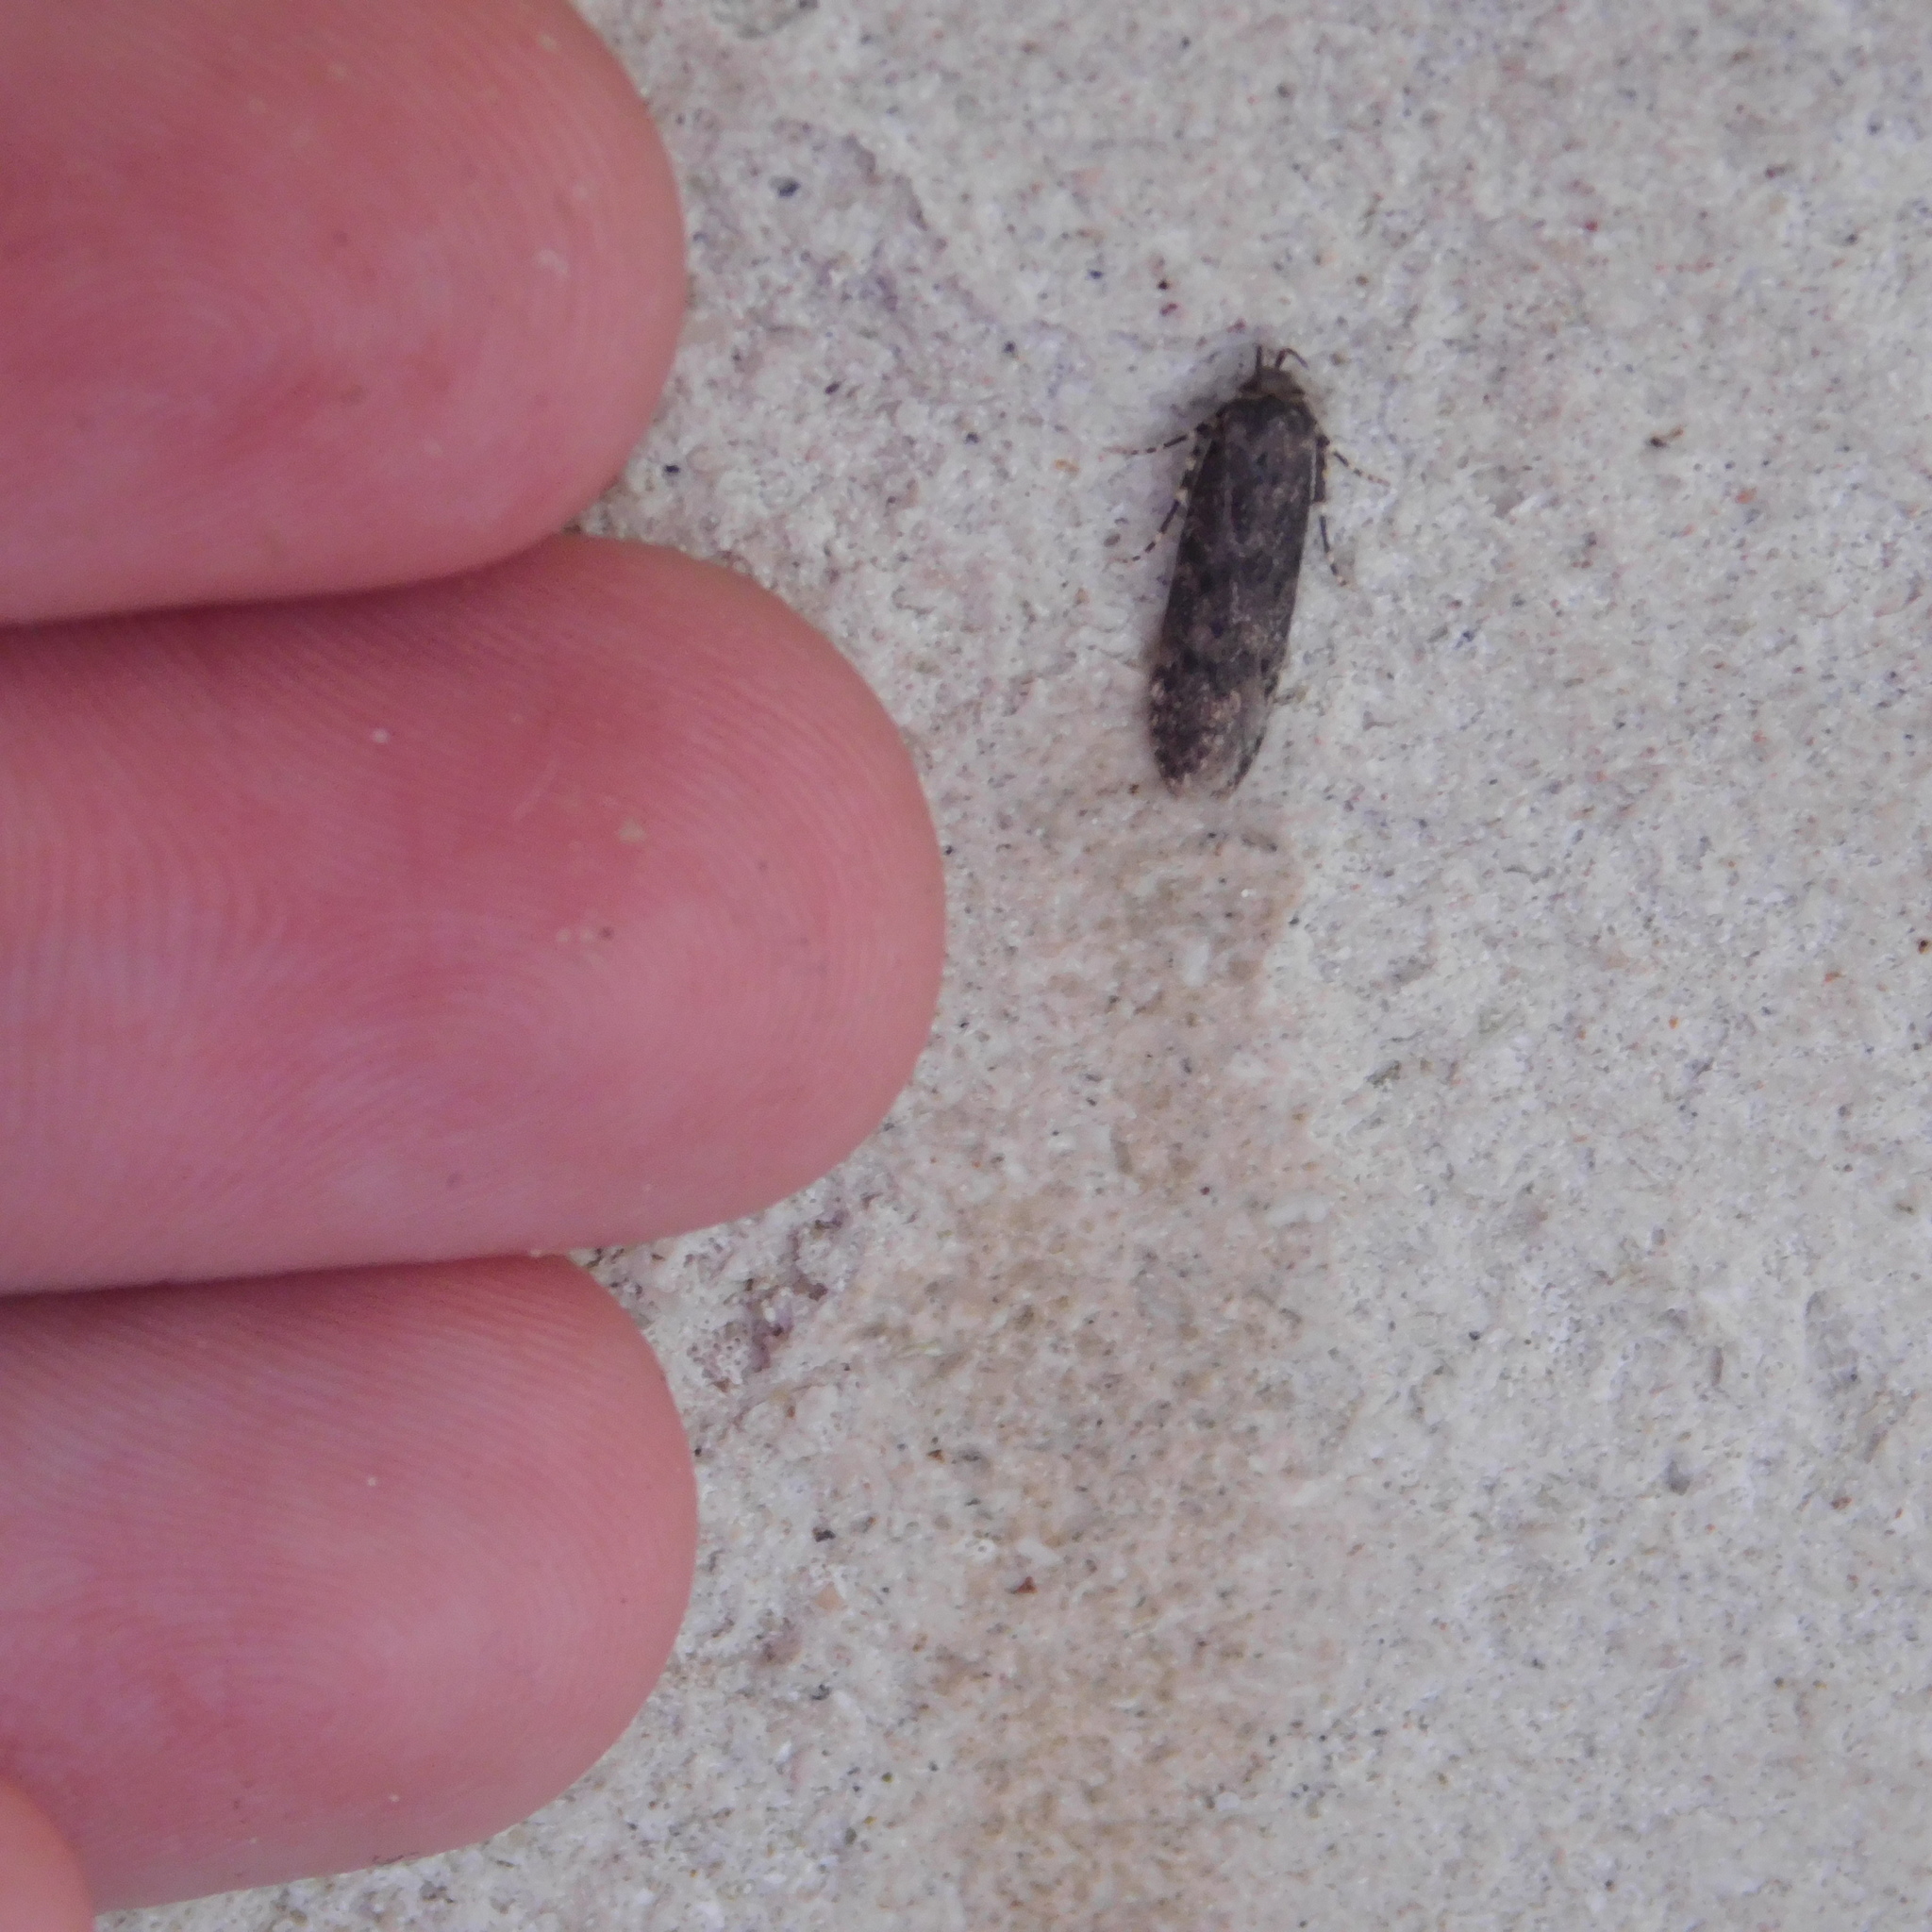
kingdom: Animalia
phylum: Arthropoda
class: Insecta
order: Lepidoptera
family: Blastobasidae
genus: Blastobasis
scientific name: Blastobasis marmorosella
